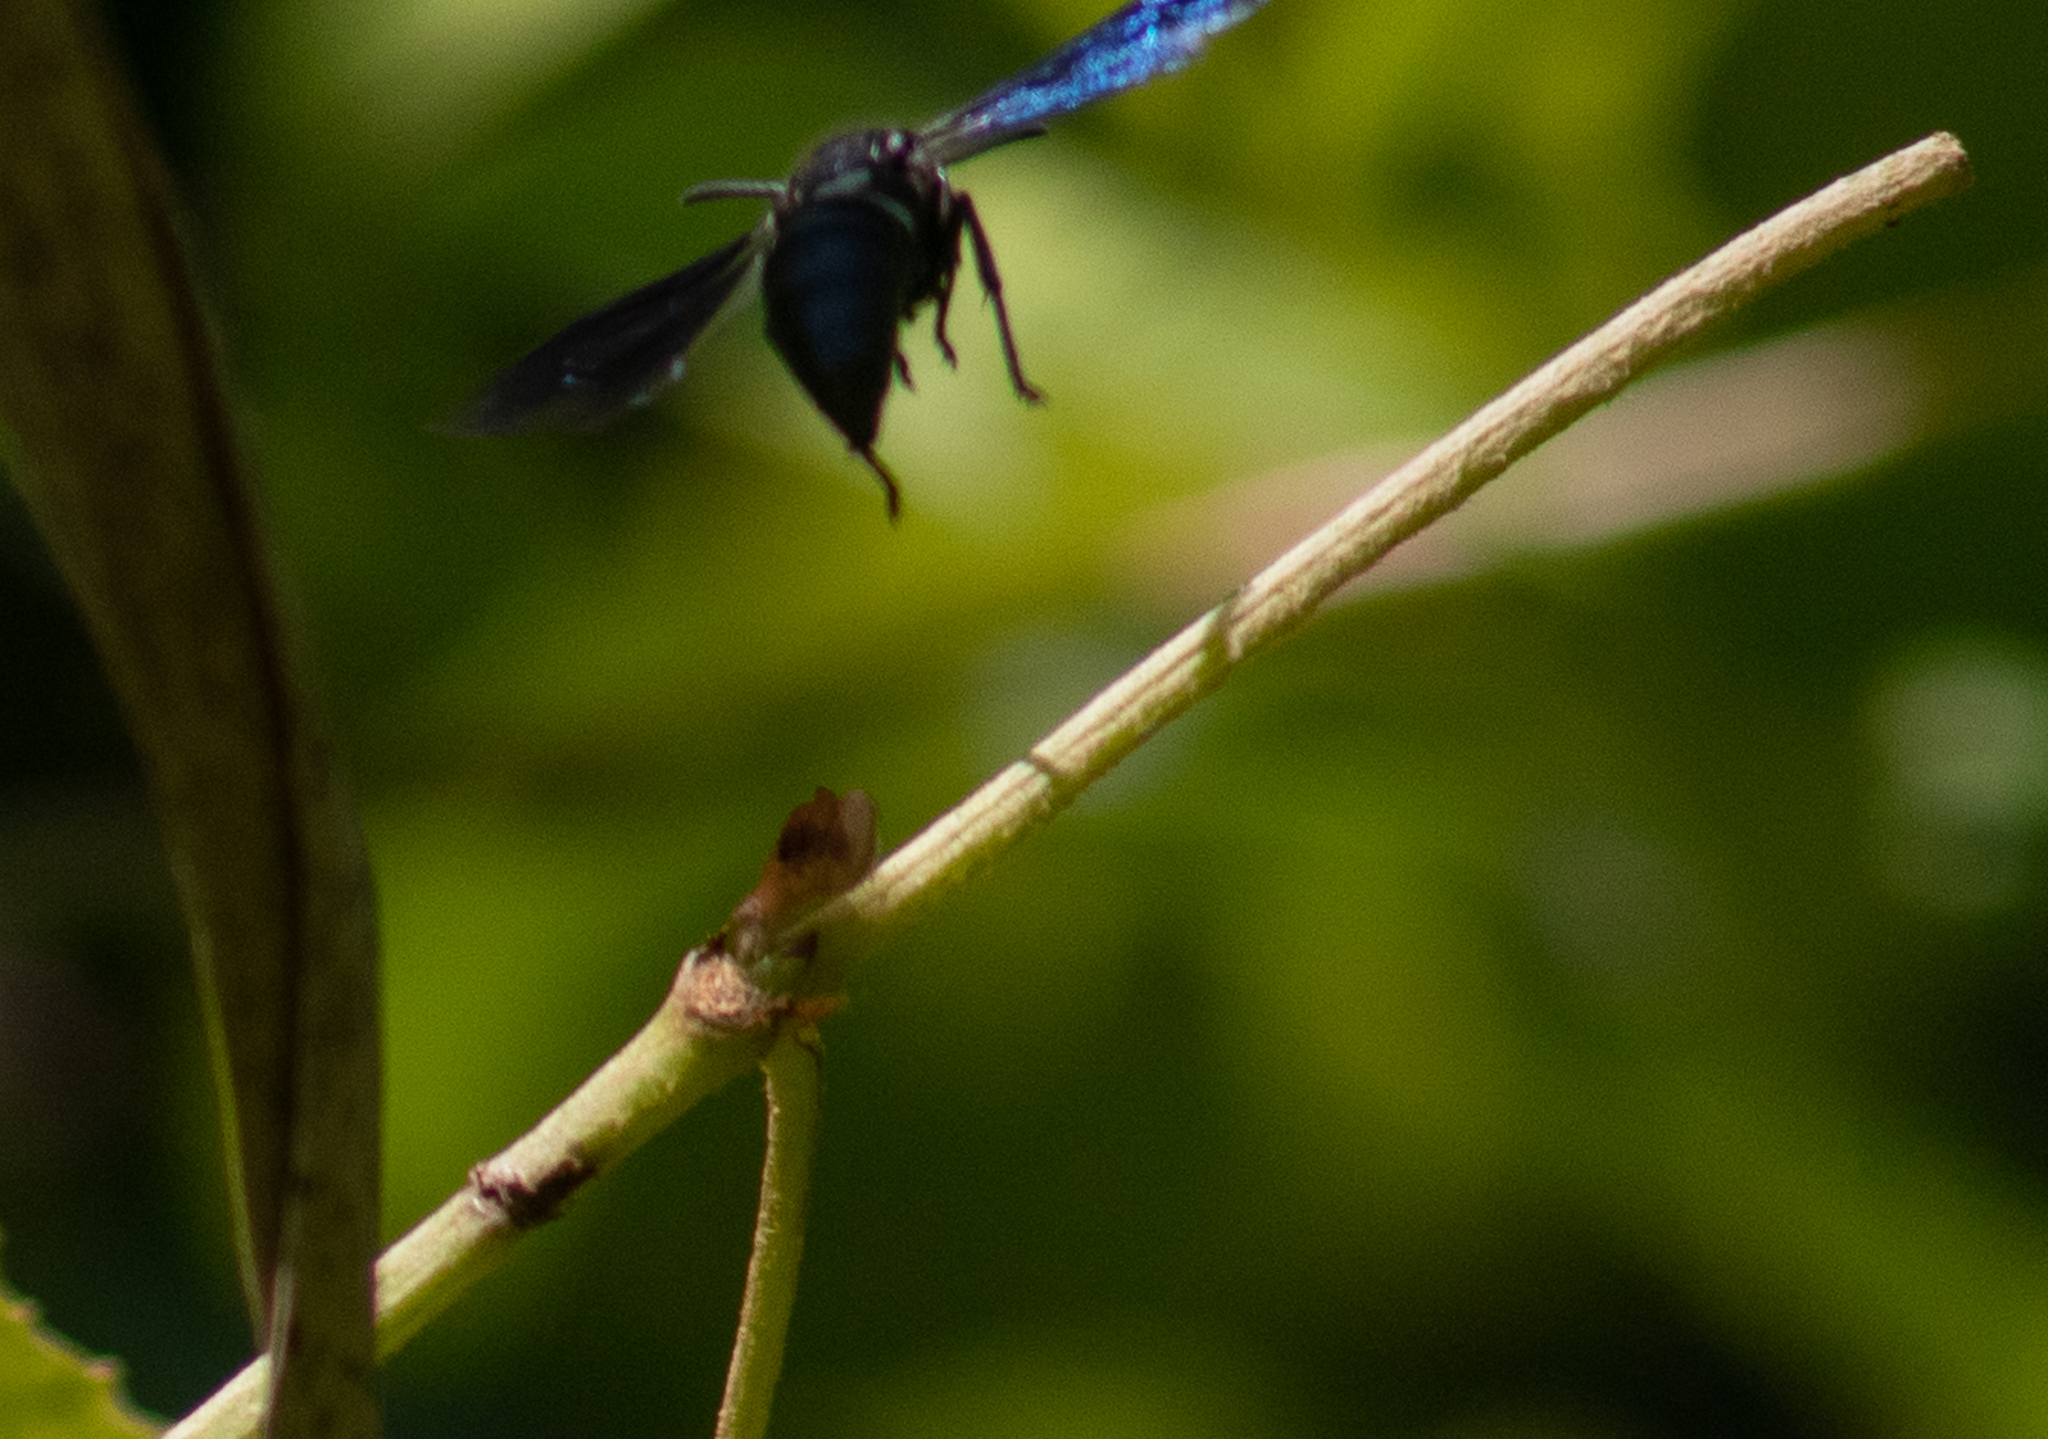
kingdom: Animalia
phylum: Arthropoda
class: Insecta
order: Hymenoptera
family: Eumenidae
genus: Monobia
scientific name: Monobia quadridens
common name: Four-toothed mason wasp
